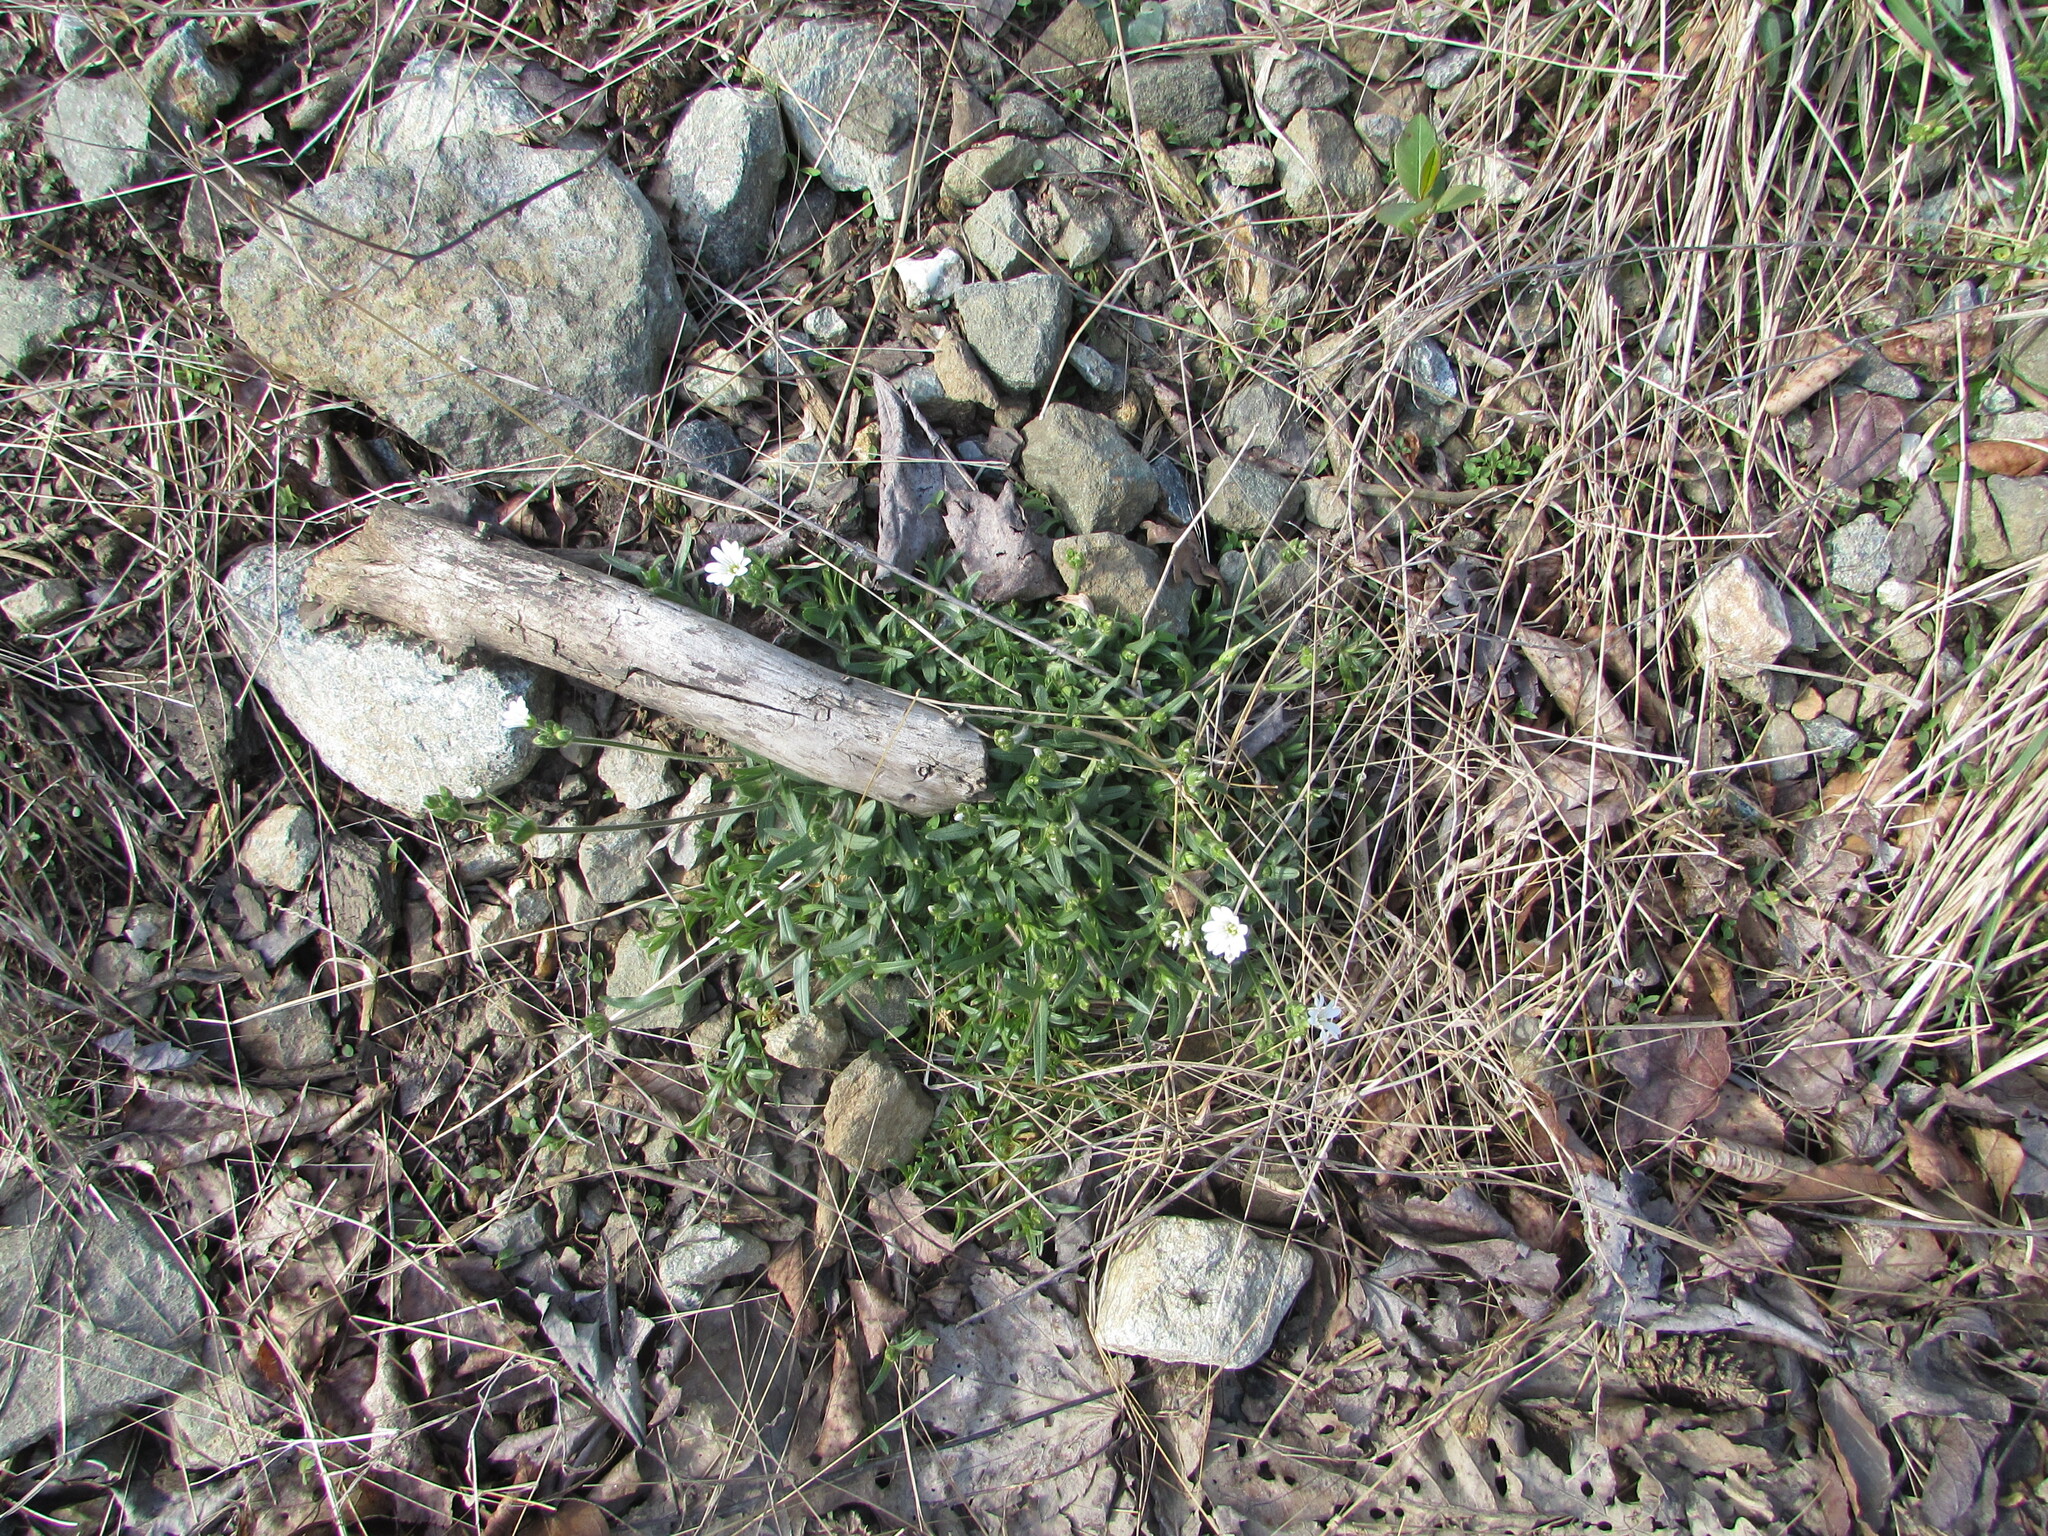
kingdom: Plantae
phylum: Tracheophyta
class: Magnoliopsida
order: Caryophyllales
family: Caryophyllaceae
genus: Cerastium
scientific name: Cerastium velutinum
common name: Barren chickweed
